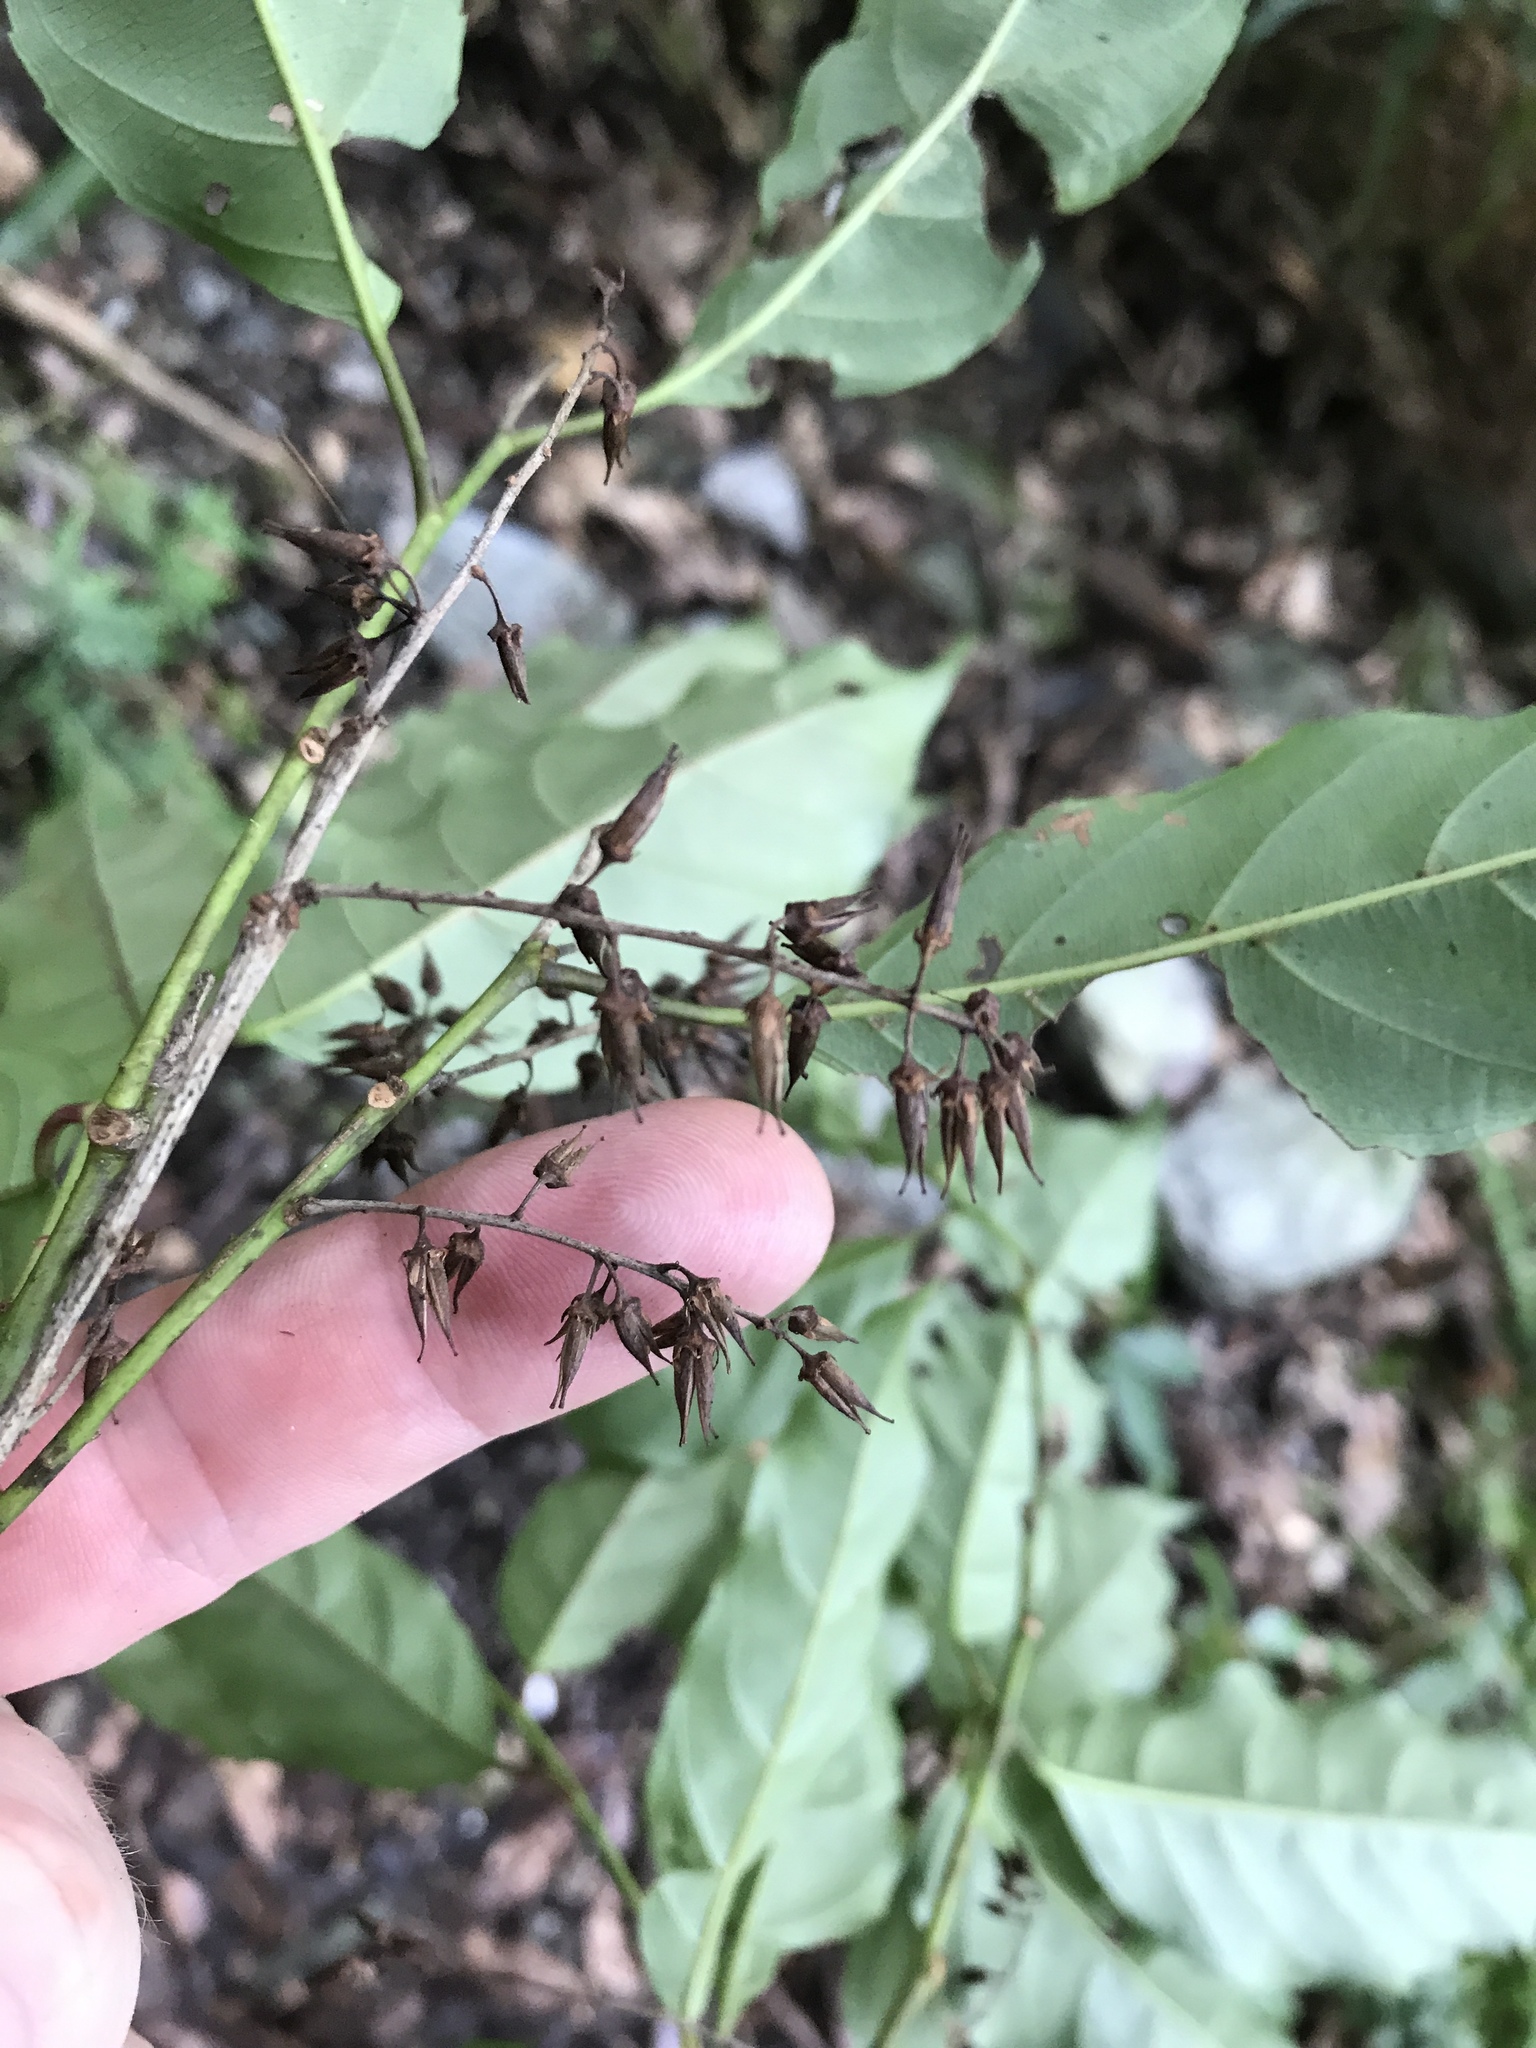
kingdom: Plantae
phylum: Tracheophyta
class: Magnoliopsida
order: Saxifragales
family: Iteaceae
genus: Itea
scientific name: Itea parviflora
